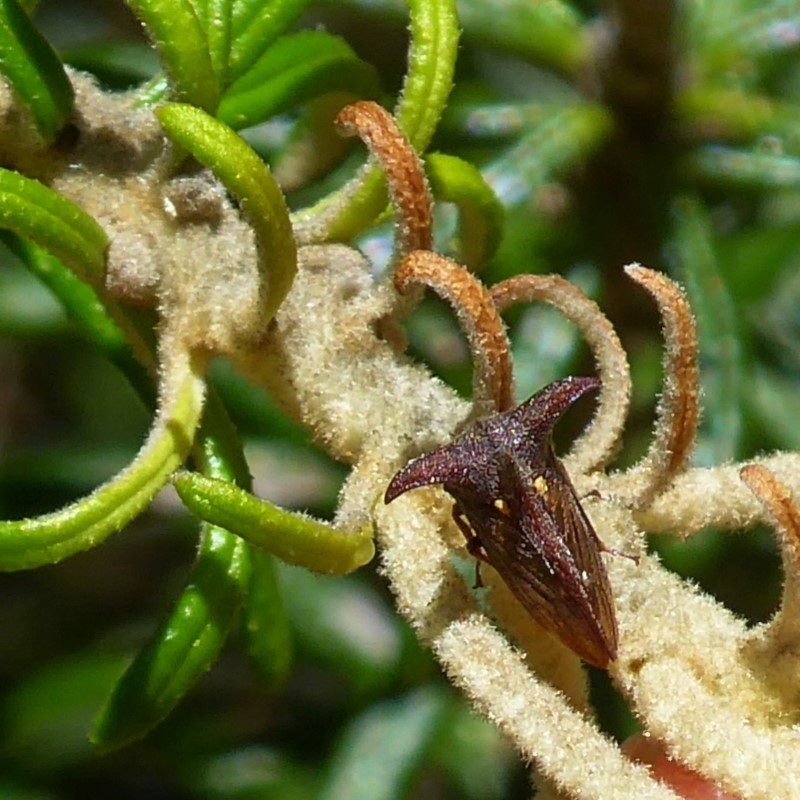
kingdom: Animalia
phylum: Arthropoda
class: Insecta
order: Hemiptera
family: Membracidae
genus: Acanthuchus
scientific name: Acanthuchus trispinifer
